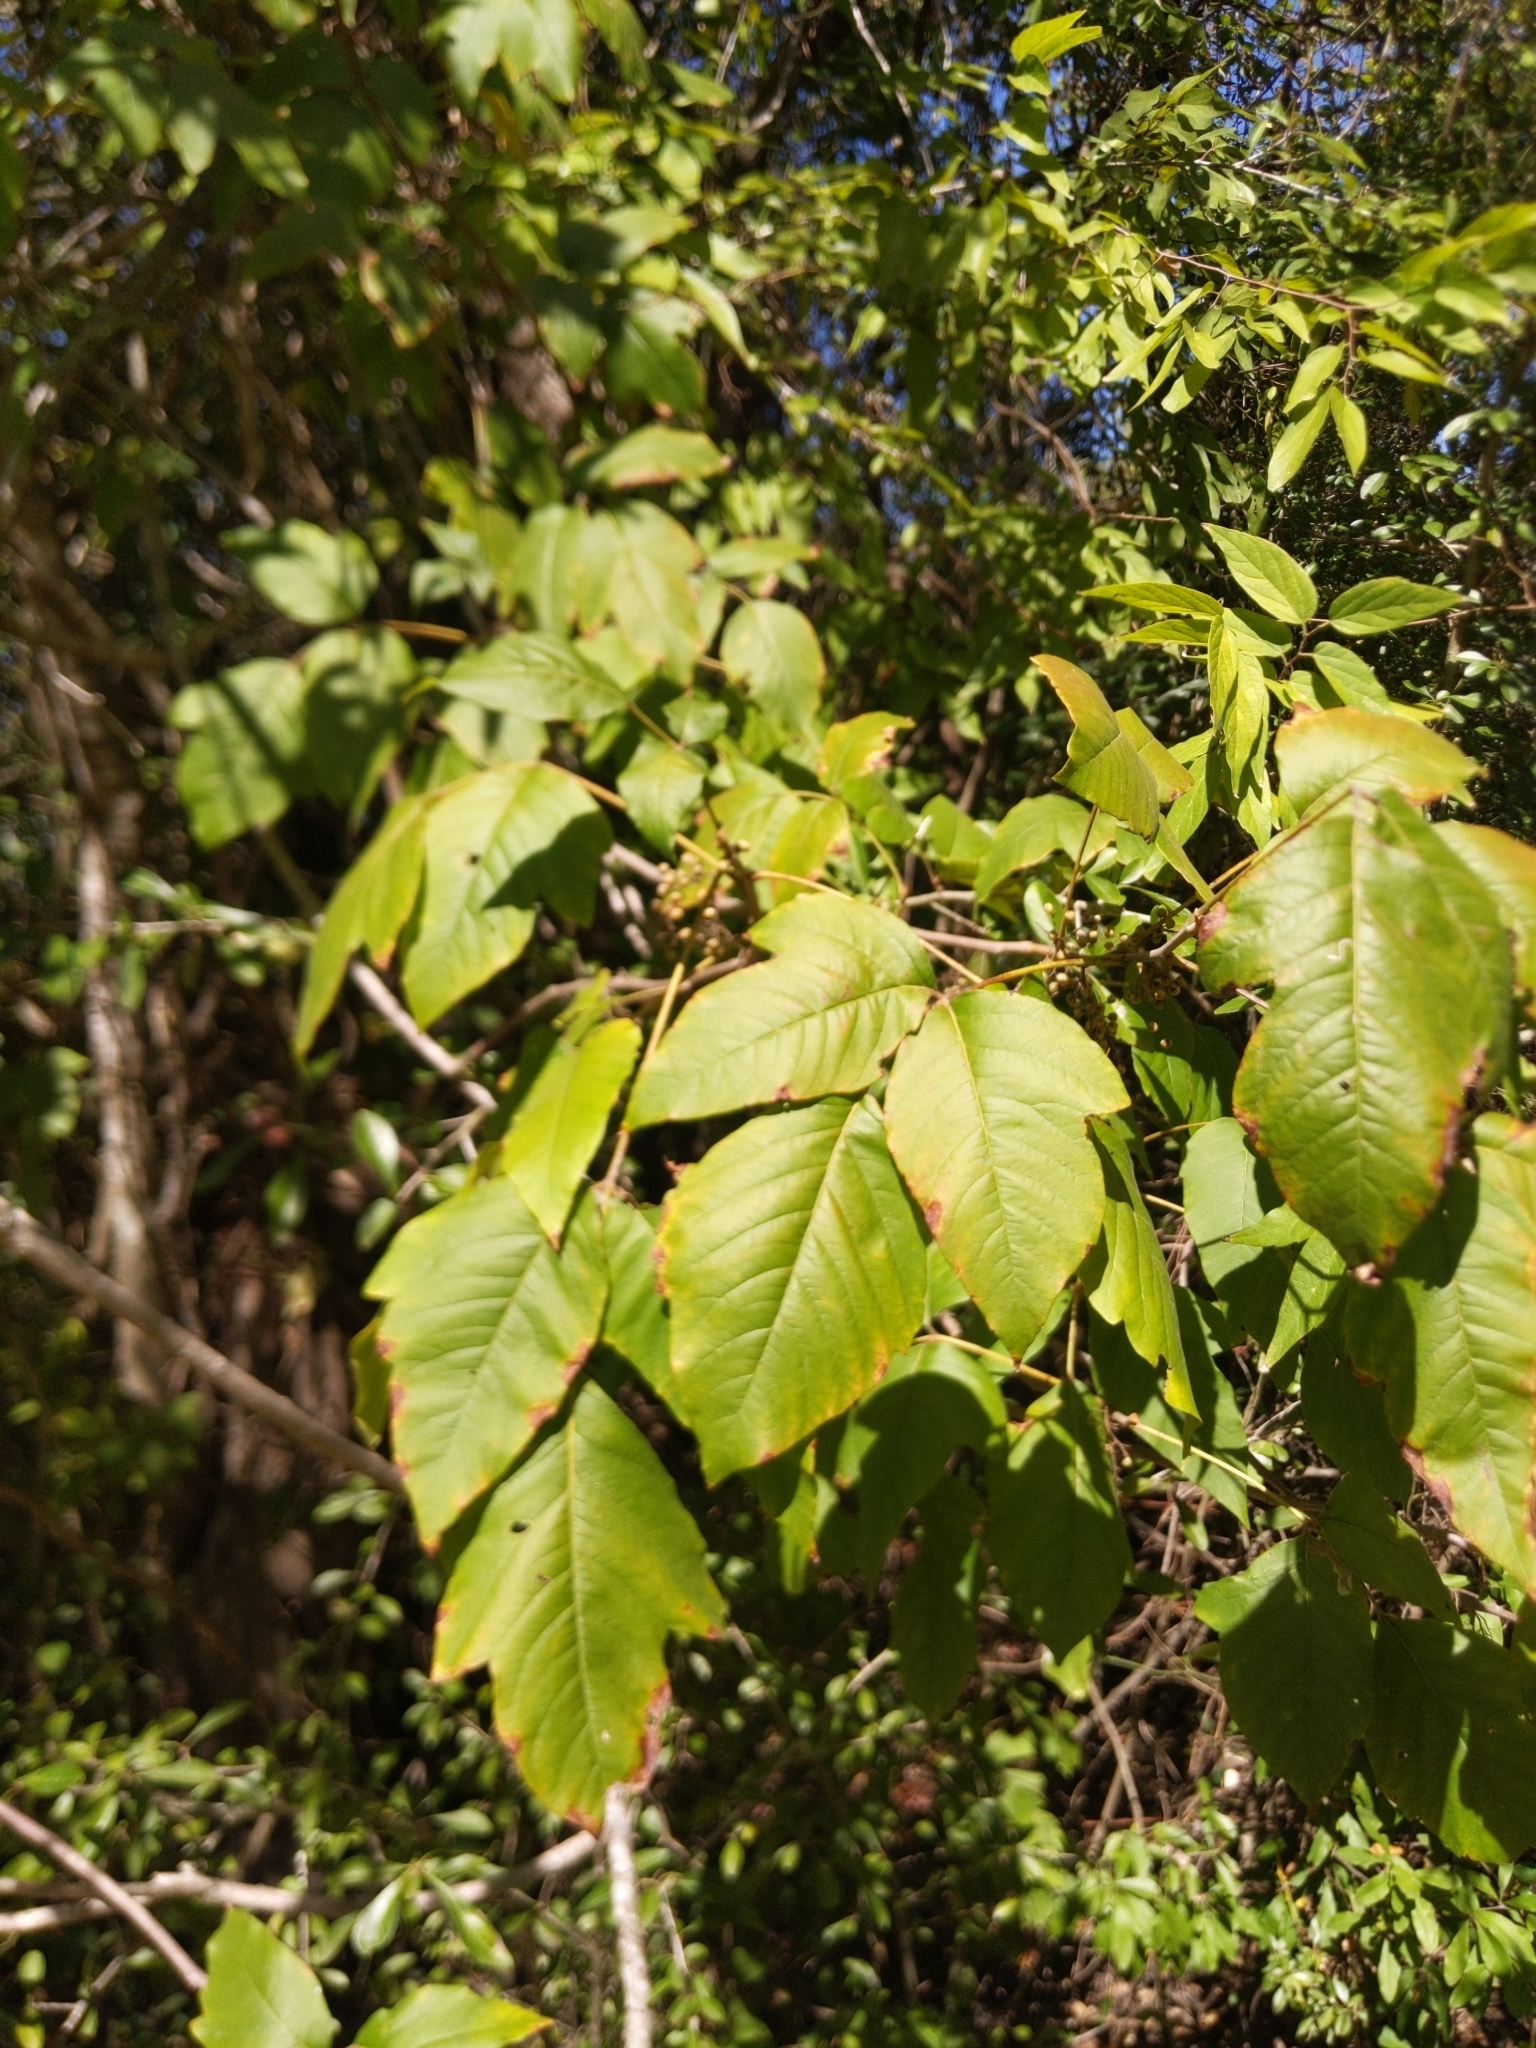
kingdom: Plantae
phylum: Tracheophyta
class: Magnoliopsida
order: Sapindales
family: Anacardiaceae
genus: Toxicodendron
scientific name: Toxicodendron radicans
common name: Poison ivy
